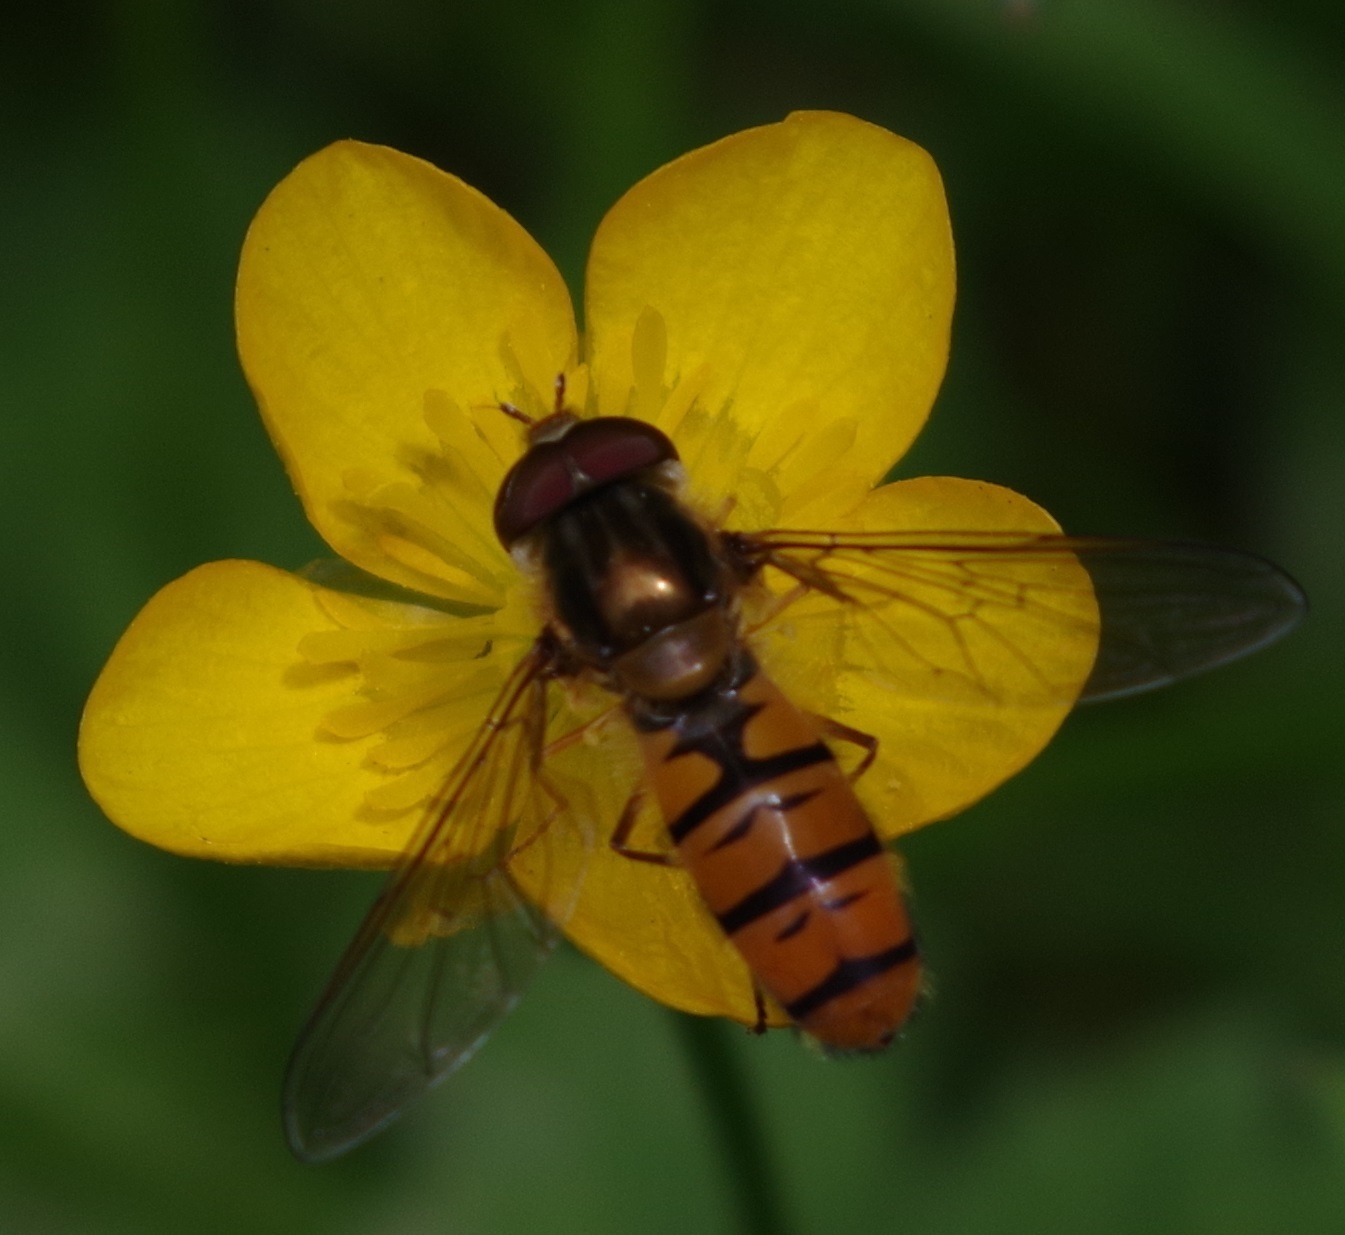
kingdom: Animalia
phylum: Arthropoda
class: Insecta
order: Diptera
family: Syrphidae
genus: Episyrphus
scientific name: Episyrphus balteatus
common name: Marmalade hoverfly
